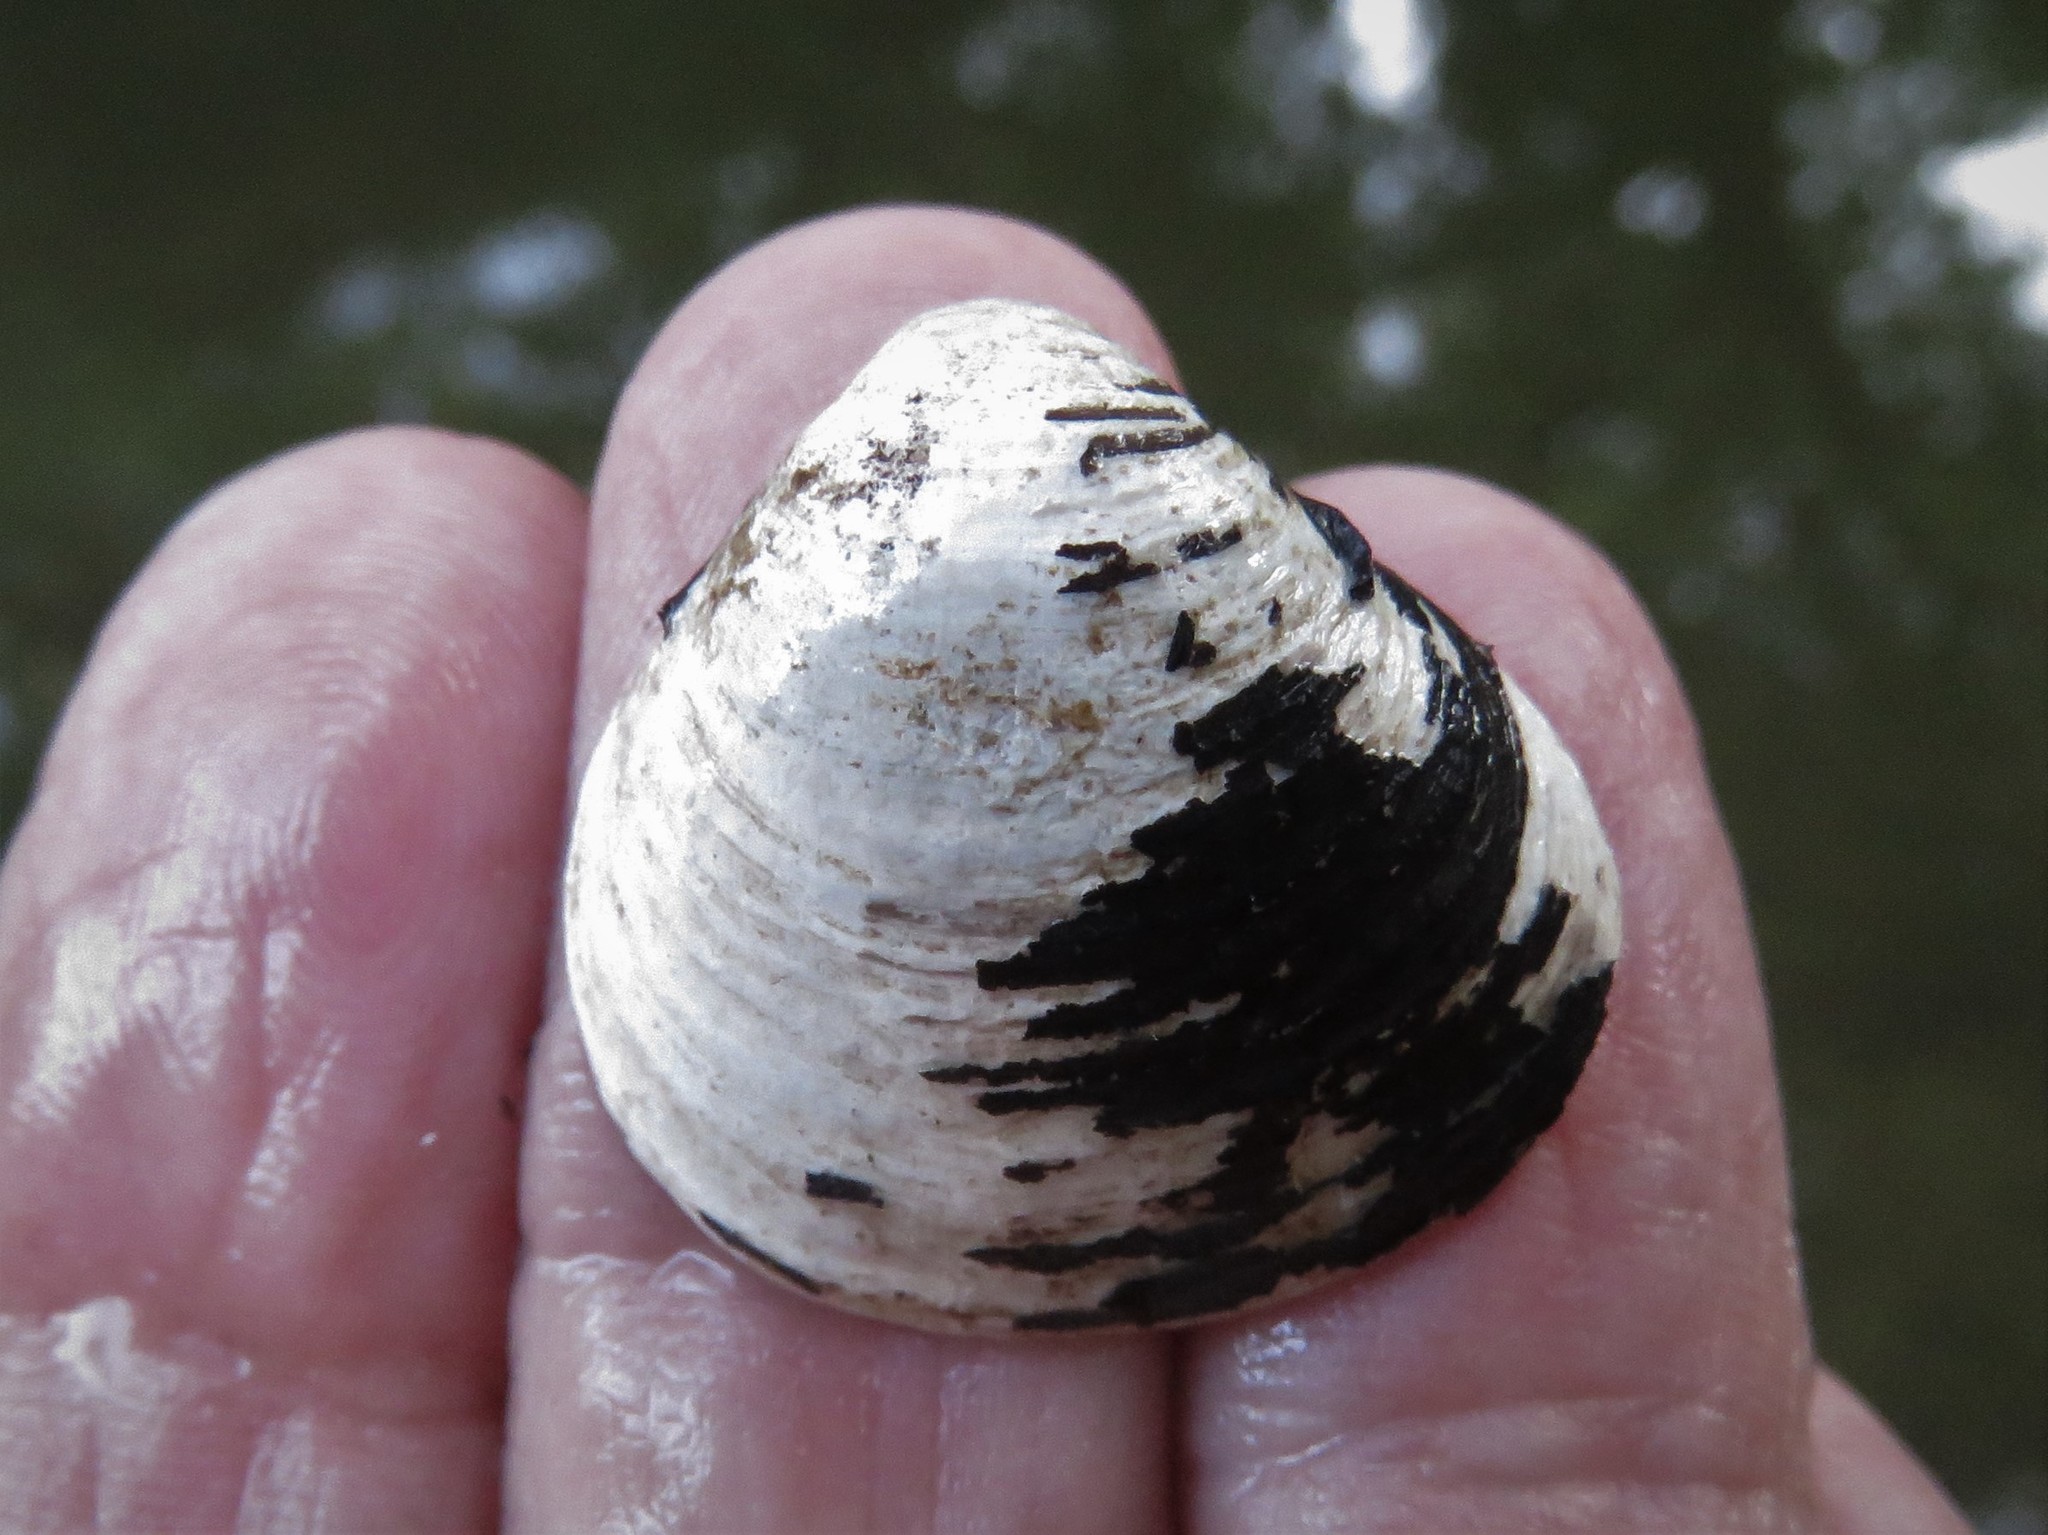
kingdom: Animalia
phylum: Mollusca
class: Bivalvia
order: Venerida
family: Cyrenidae
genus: Corbicula
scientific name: Corbicula fluminea
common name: Asian clam
